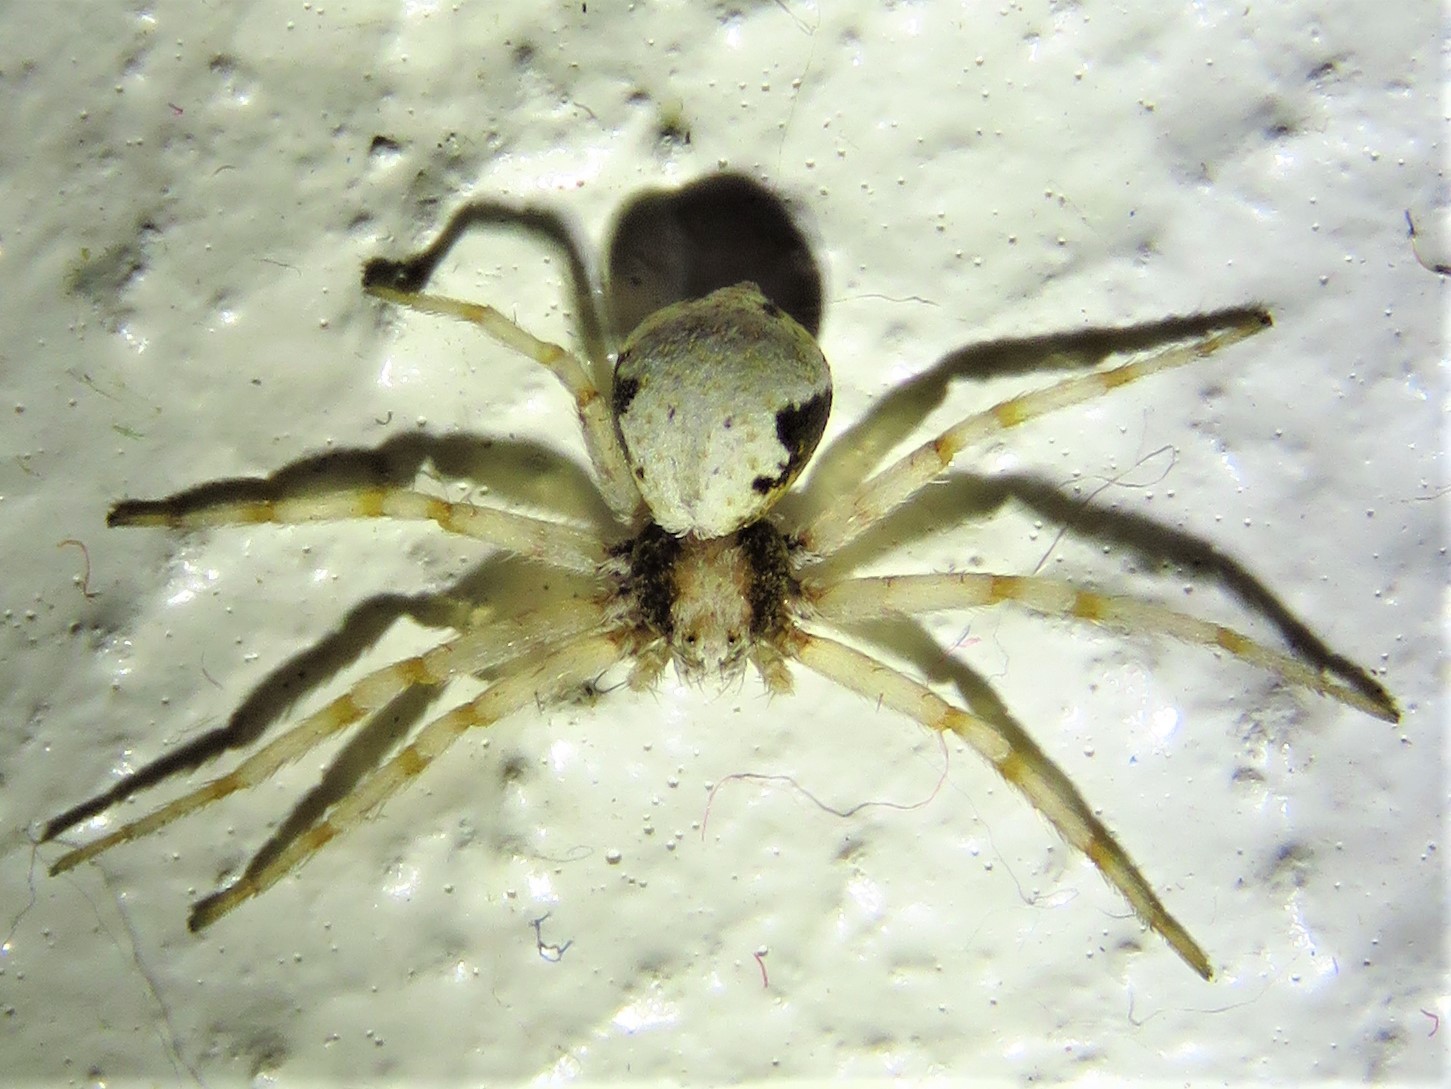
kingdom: Animalia
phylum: Arthropoda
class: Arachnida
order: Araneae
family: Philodromidae
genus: Philodromus
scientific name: Philodromus marxi
